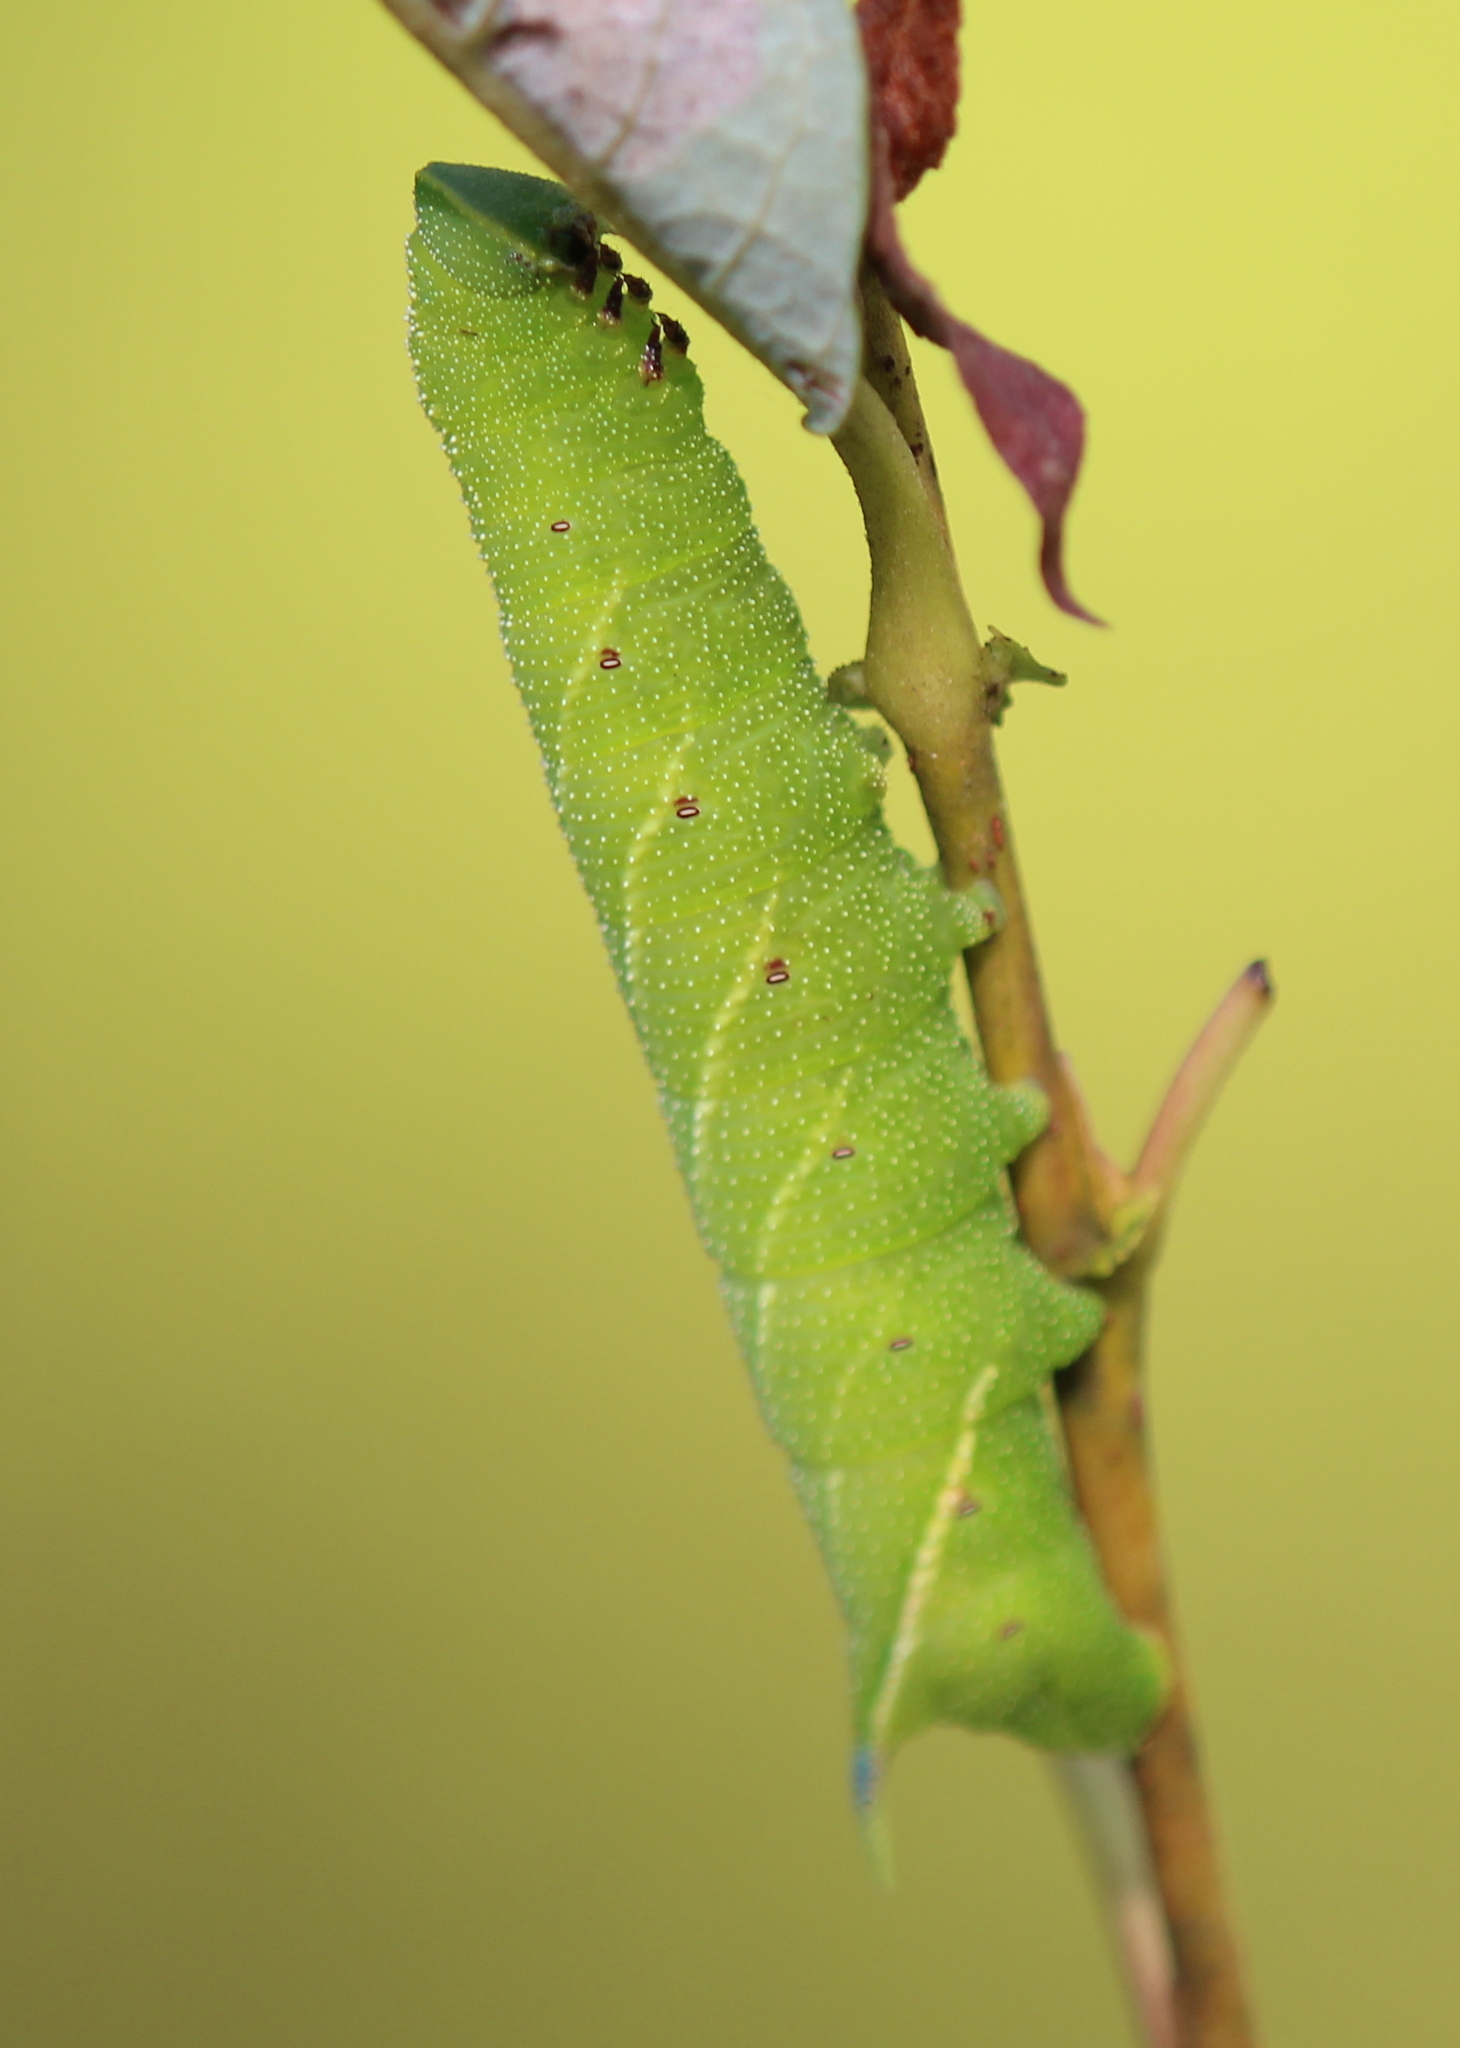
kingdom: Animalia
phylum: Arthropoda
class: Insecta
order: Lepidoptera
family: Sphingidae
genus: Smerinthus
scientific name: Smerinthus jamaicensis
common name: Twin spotted sphinx
